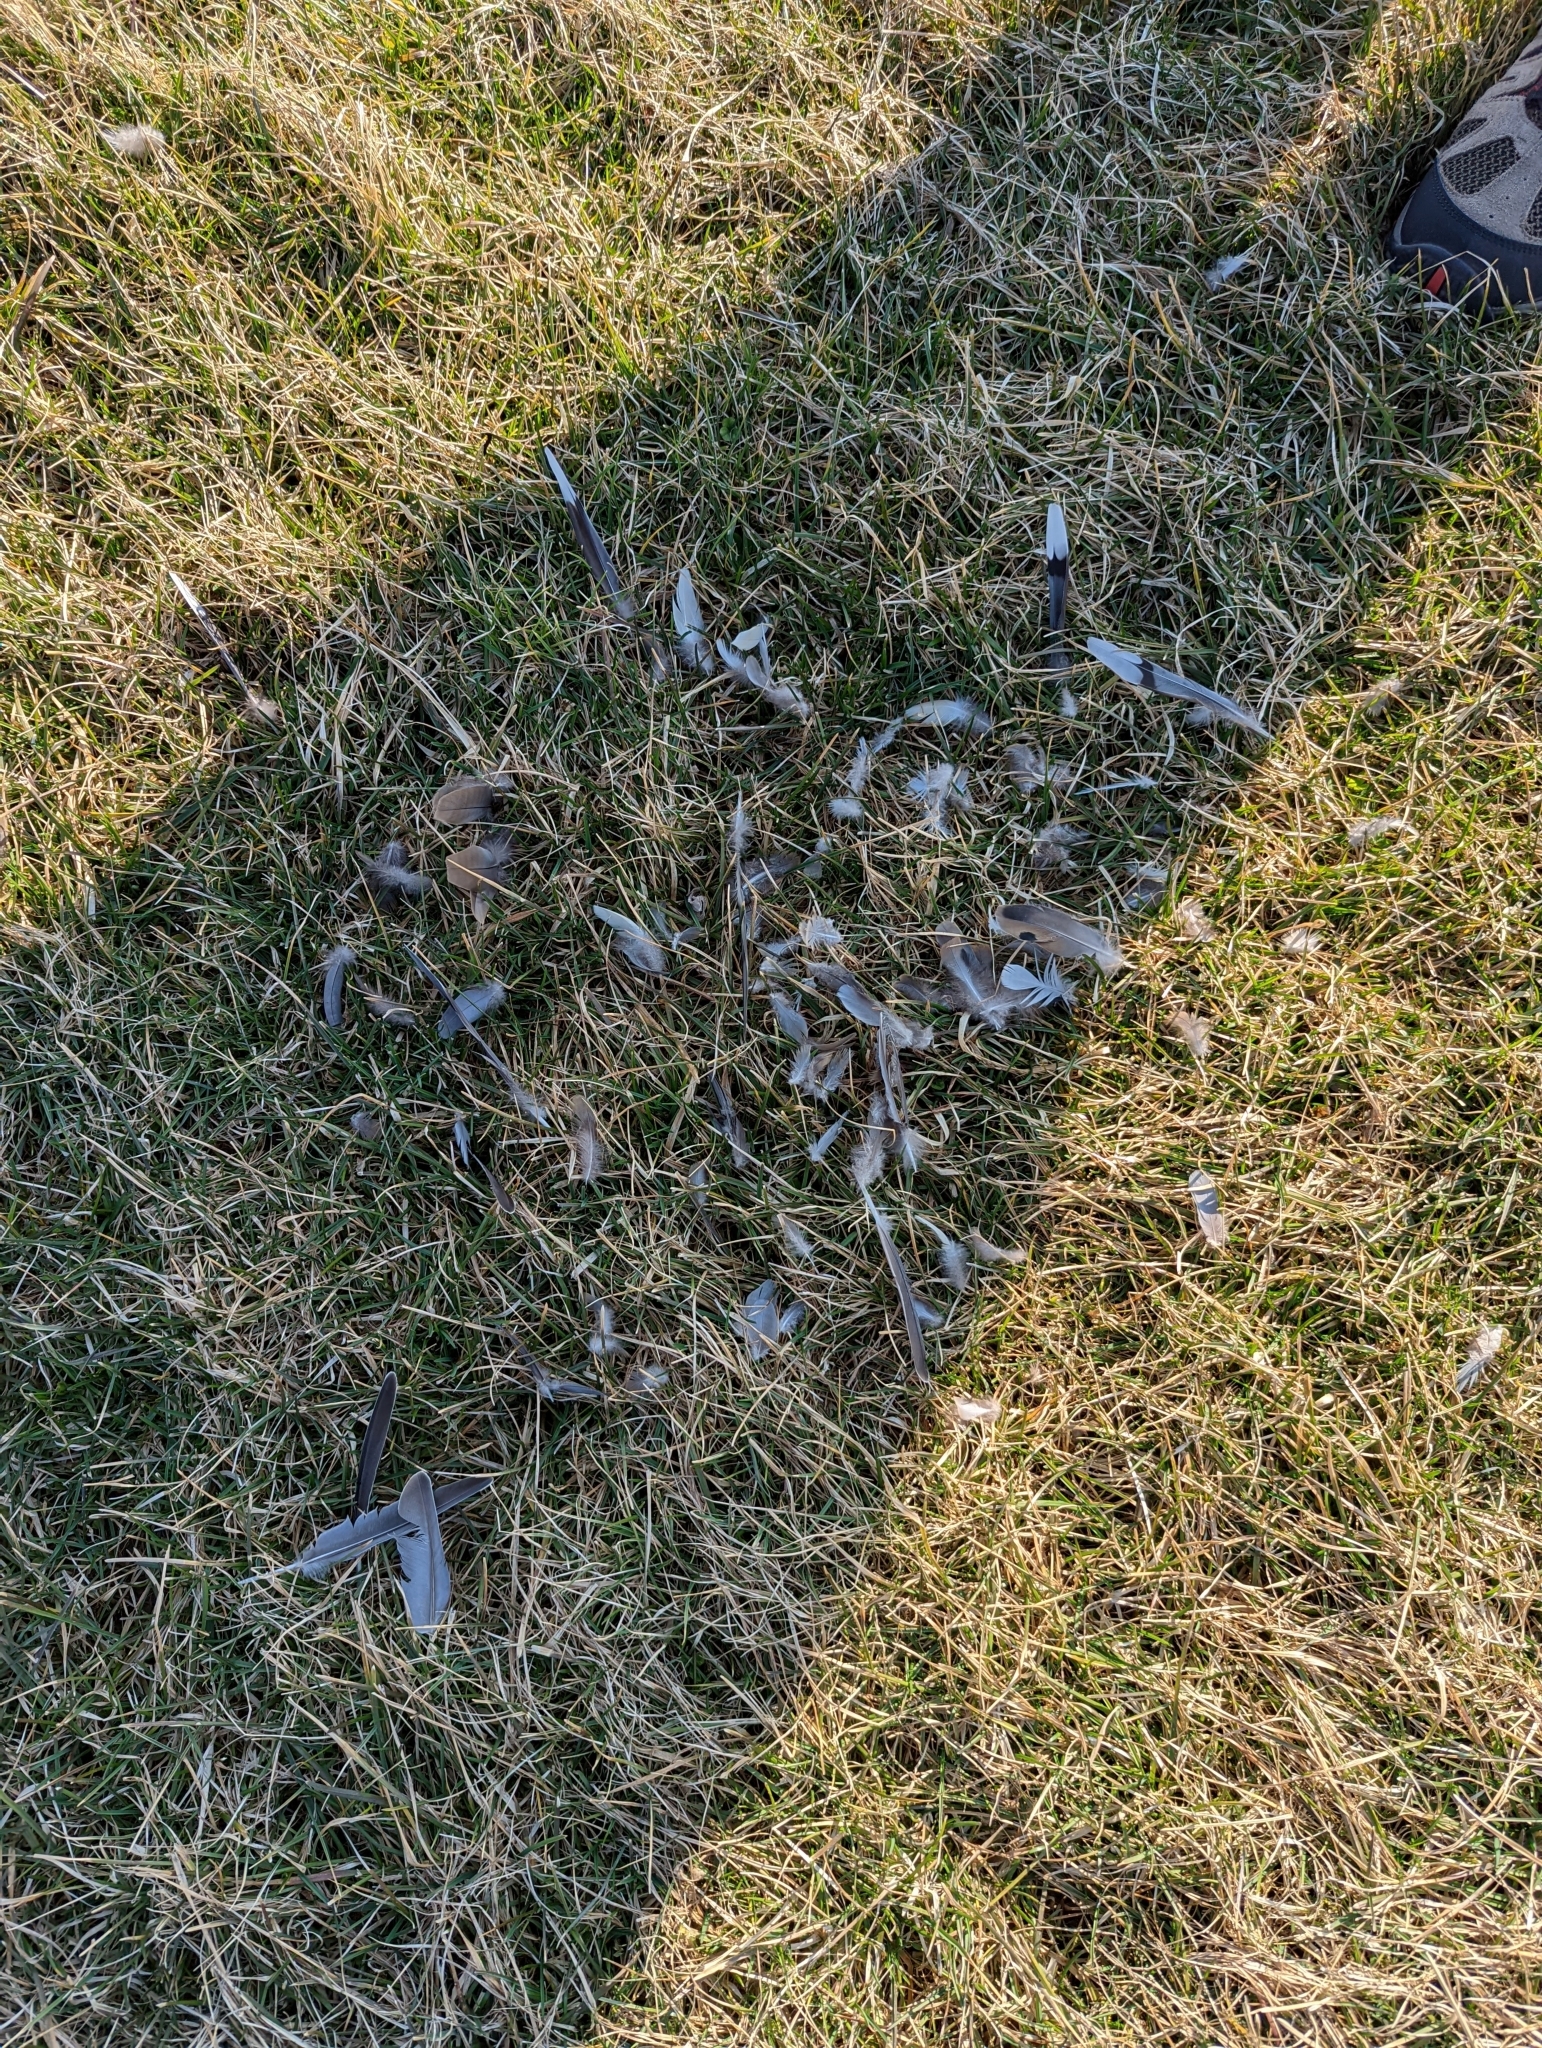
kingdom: Animalia
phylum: Chordata
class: Aves
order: Columbiformes
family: Columbidae
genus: Zenaida
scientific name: Zenaida macroura
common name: Mourning dove
